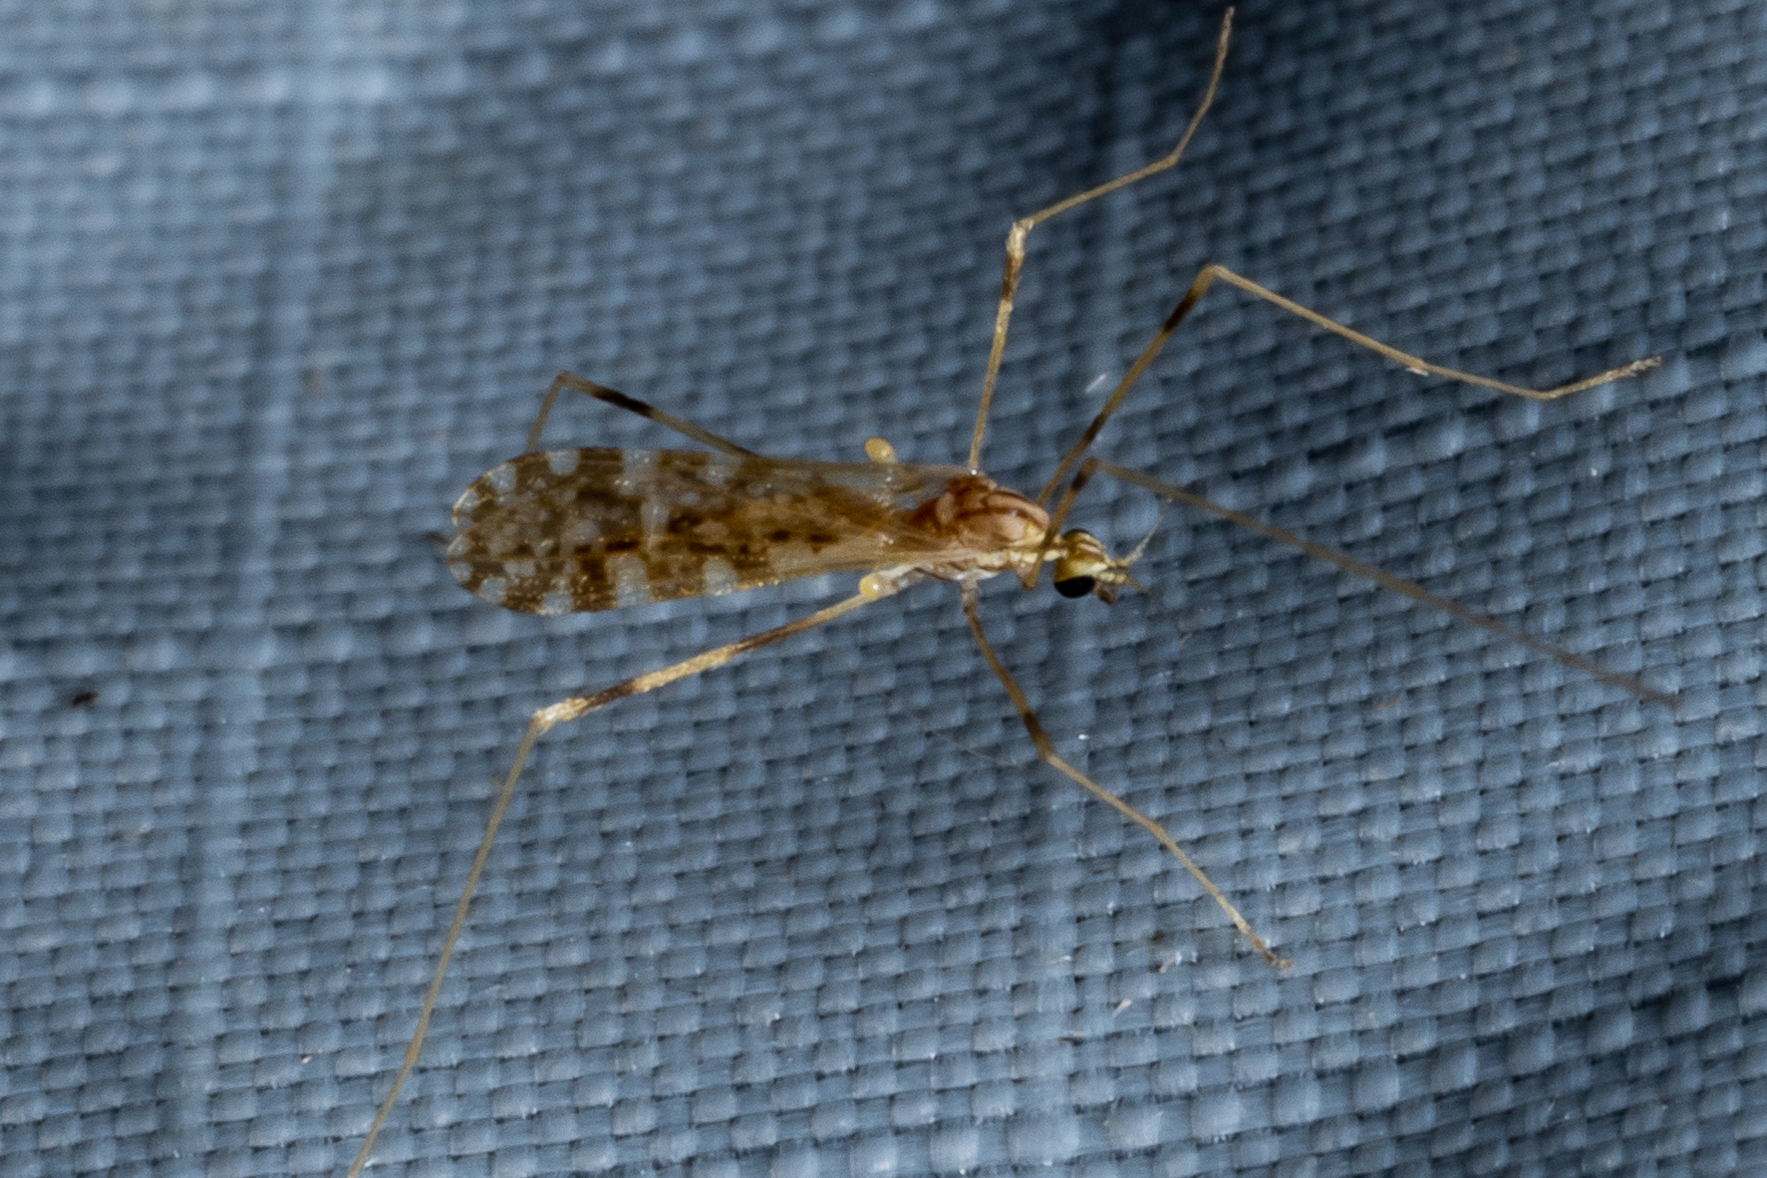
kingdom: Animalia
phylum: Arthropoda
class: Insecta
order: Diptera
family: Limoniidae
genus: Erioptera
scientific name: Erioptera caliptera
